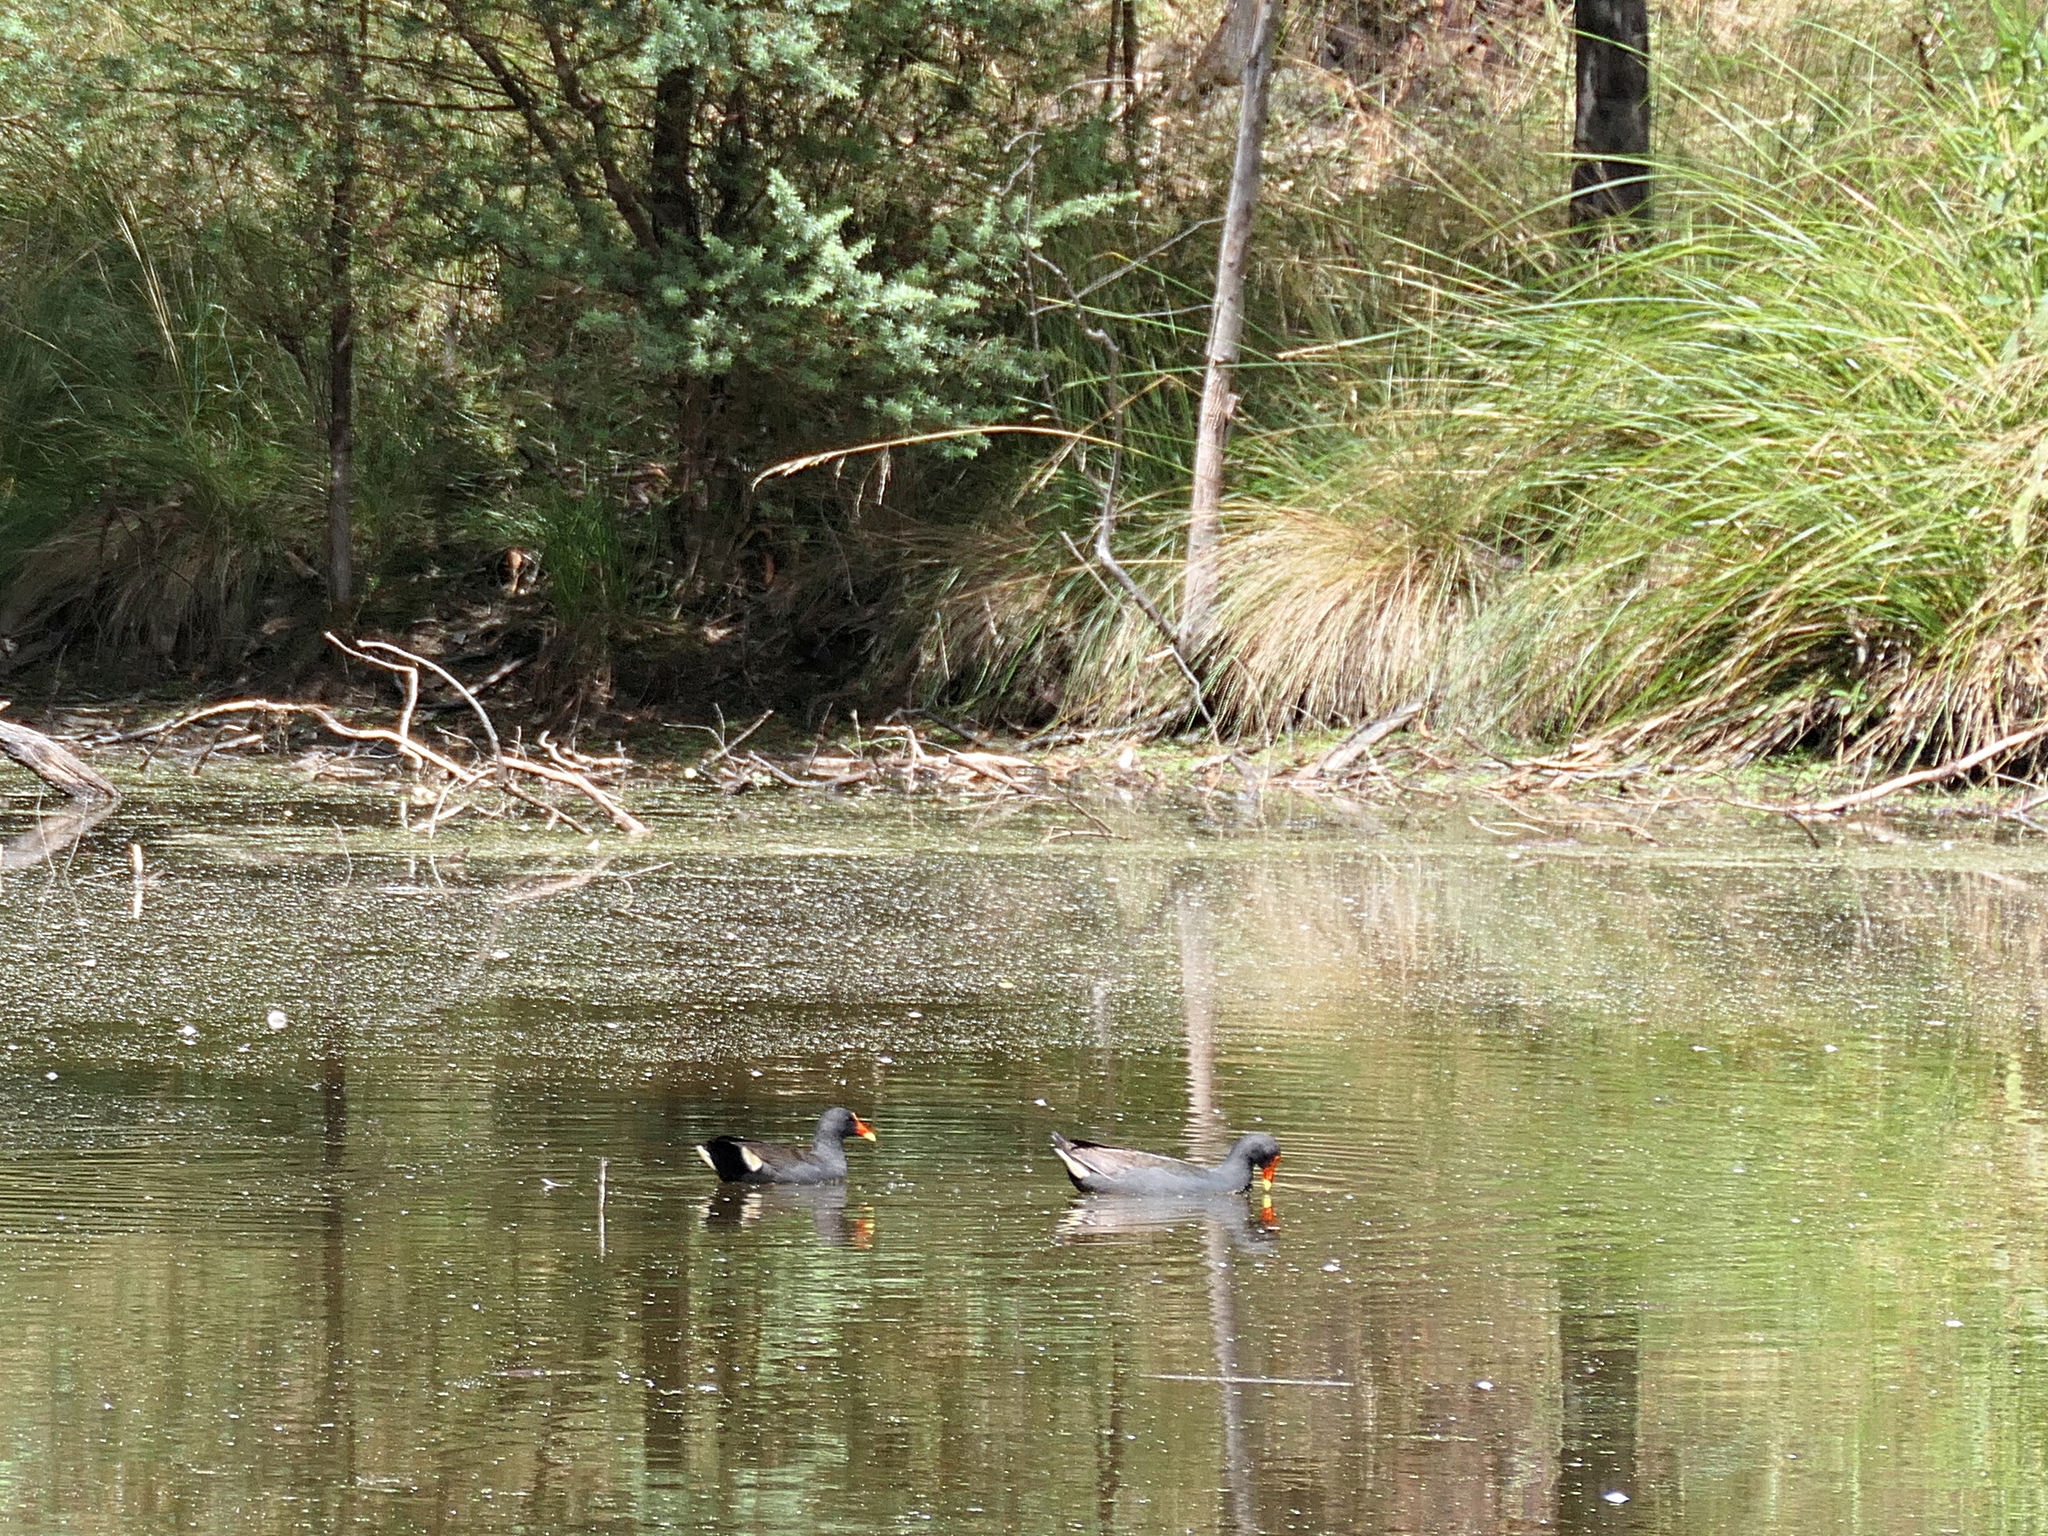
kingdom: Animalia
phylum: Chordata
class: Aves
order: Gruiformes
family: Rallidae
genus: Gallinula
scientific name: Gallinula tenebrosa
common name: Dusky moorhen
